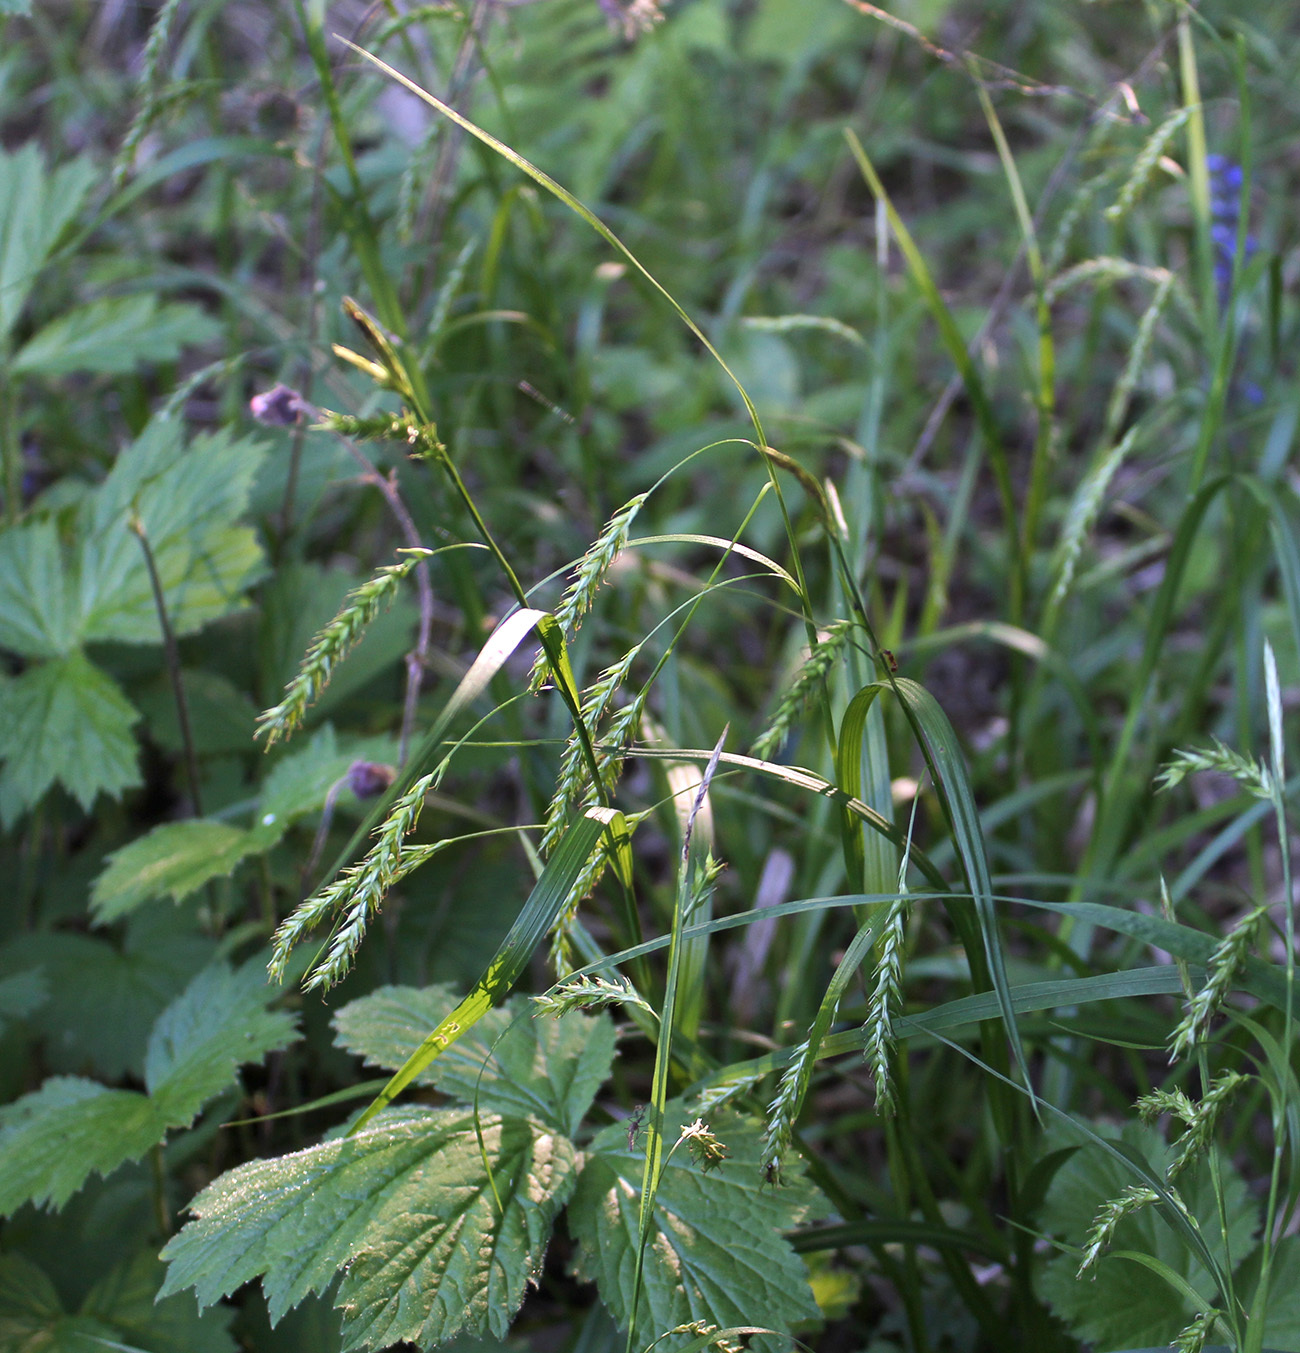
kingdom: Plantae
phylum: Tracheophyta
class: Liliopsida
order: Poales
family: Cyperaceae
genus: Carex
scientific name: Carex sylvatica
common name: Wood-sedge
